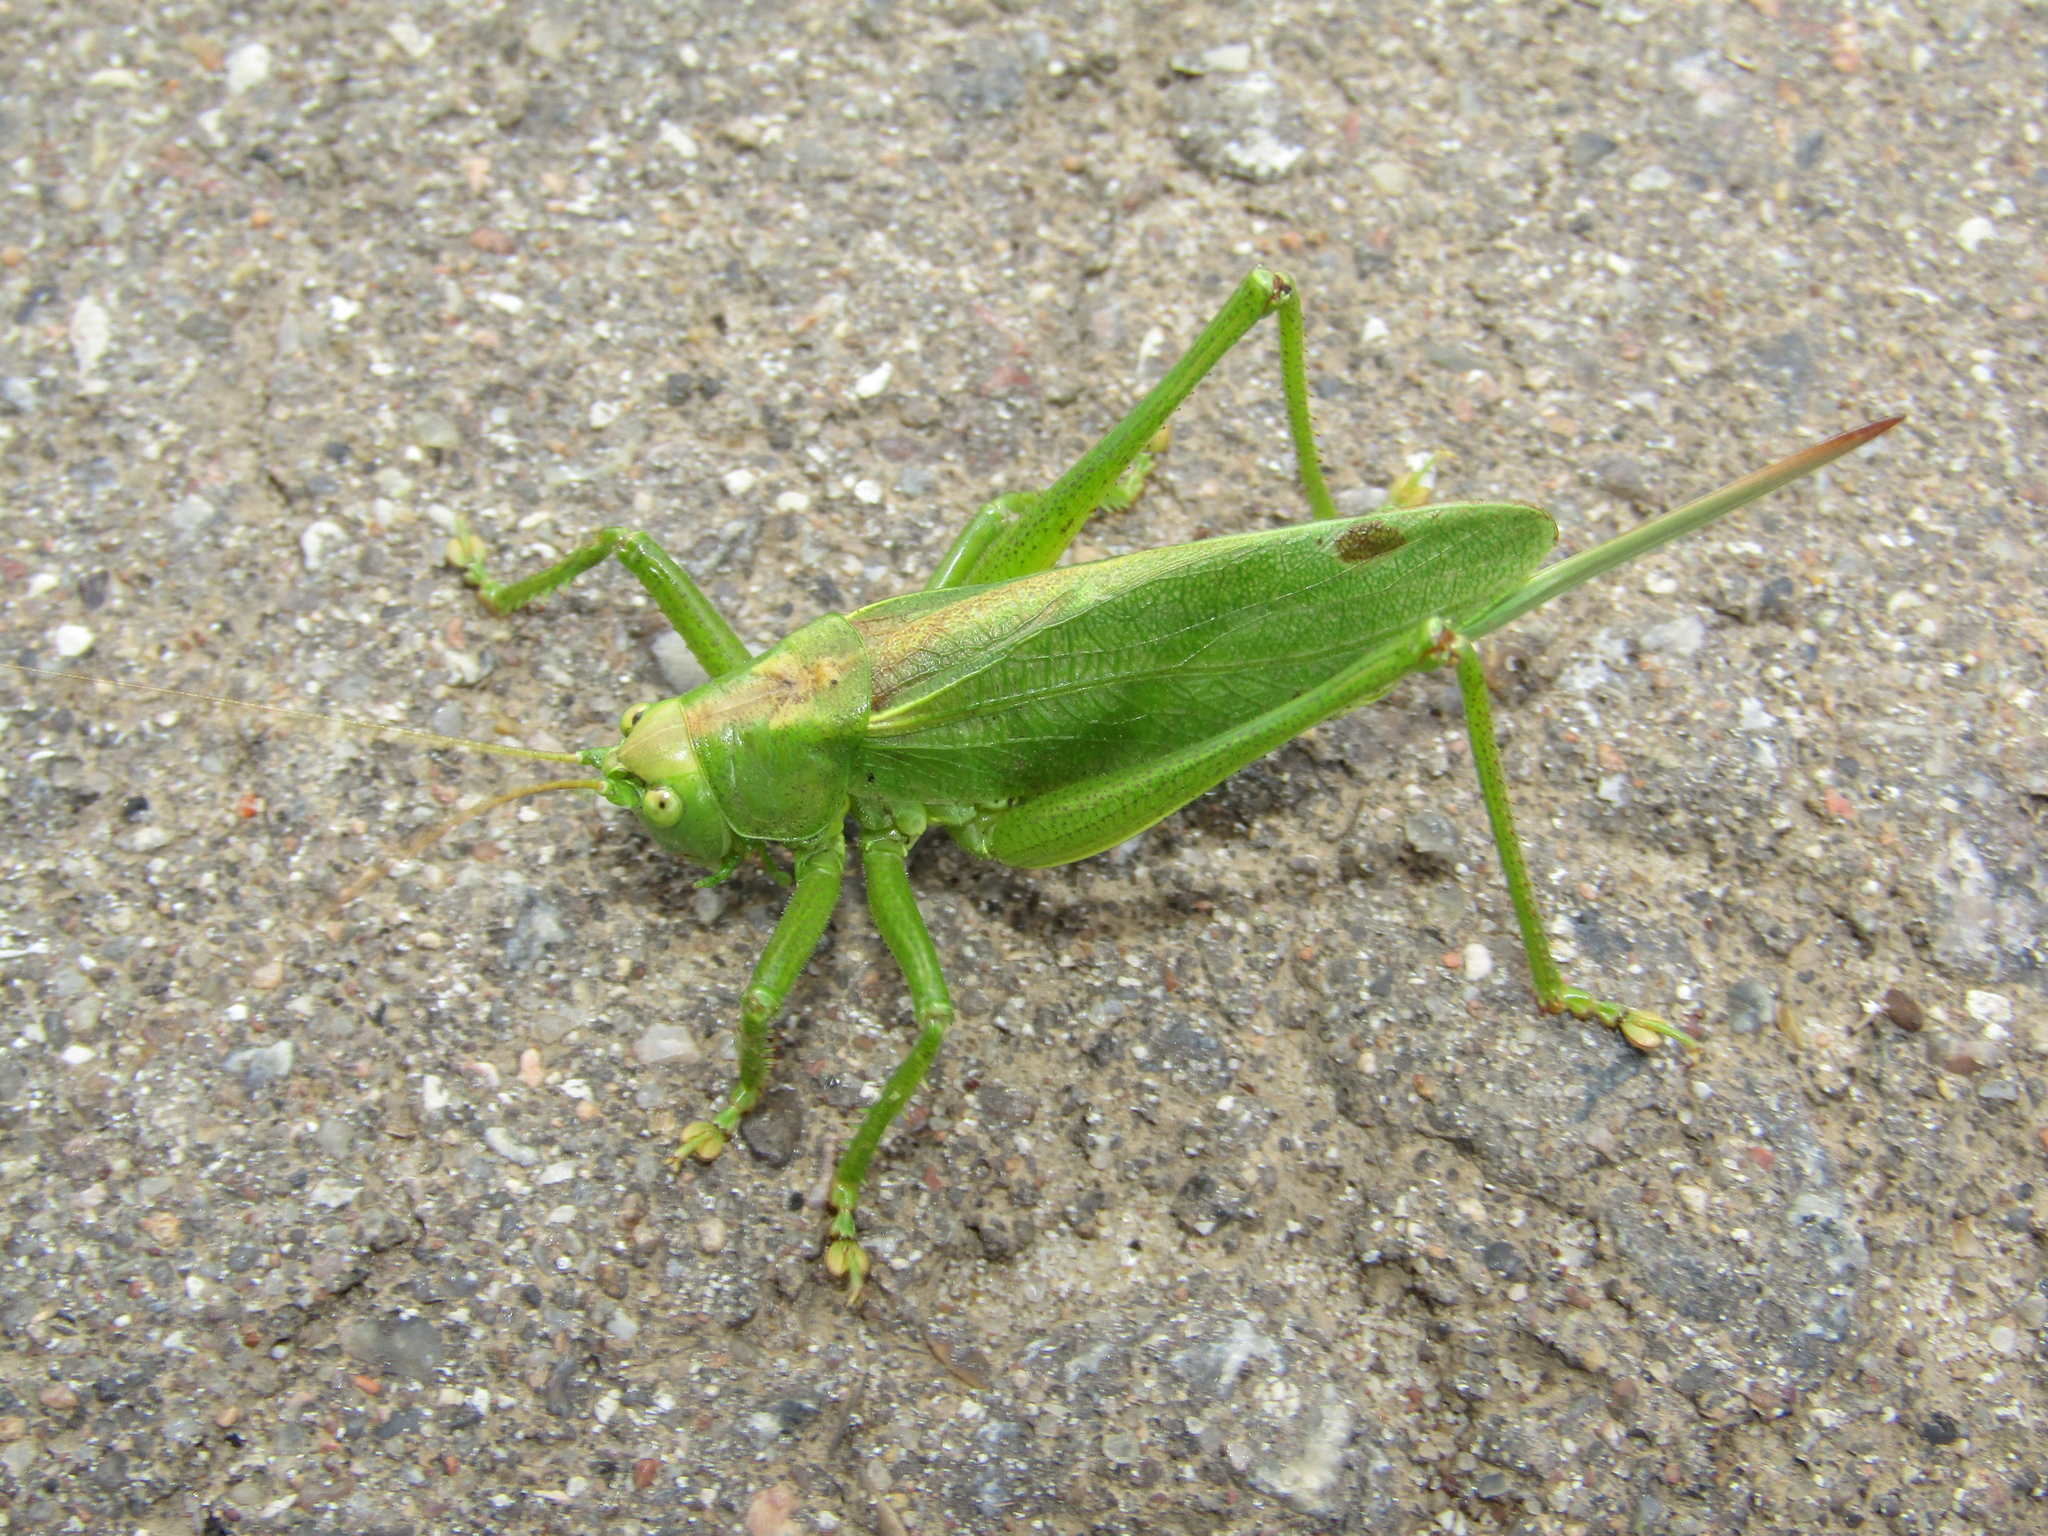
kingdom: Animalia
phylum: Arthropoda
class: Insecta
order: Orthoptera
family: Tettigoniidae
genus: Tettigonia
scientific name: Tettigonia cantans
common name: Upland green bush-cricket
